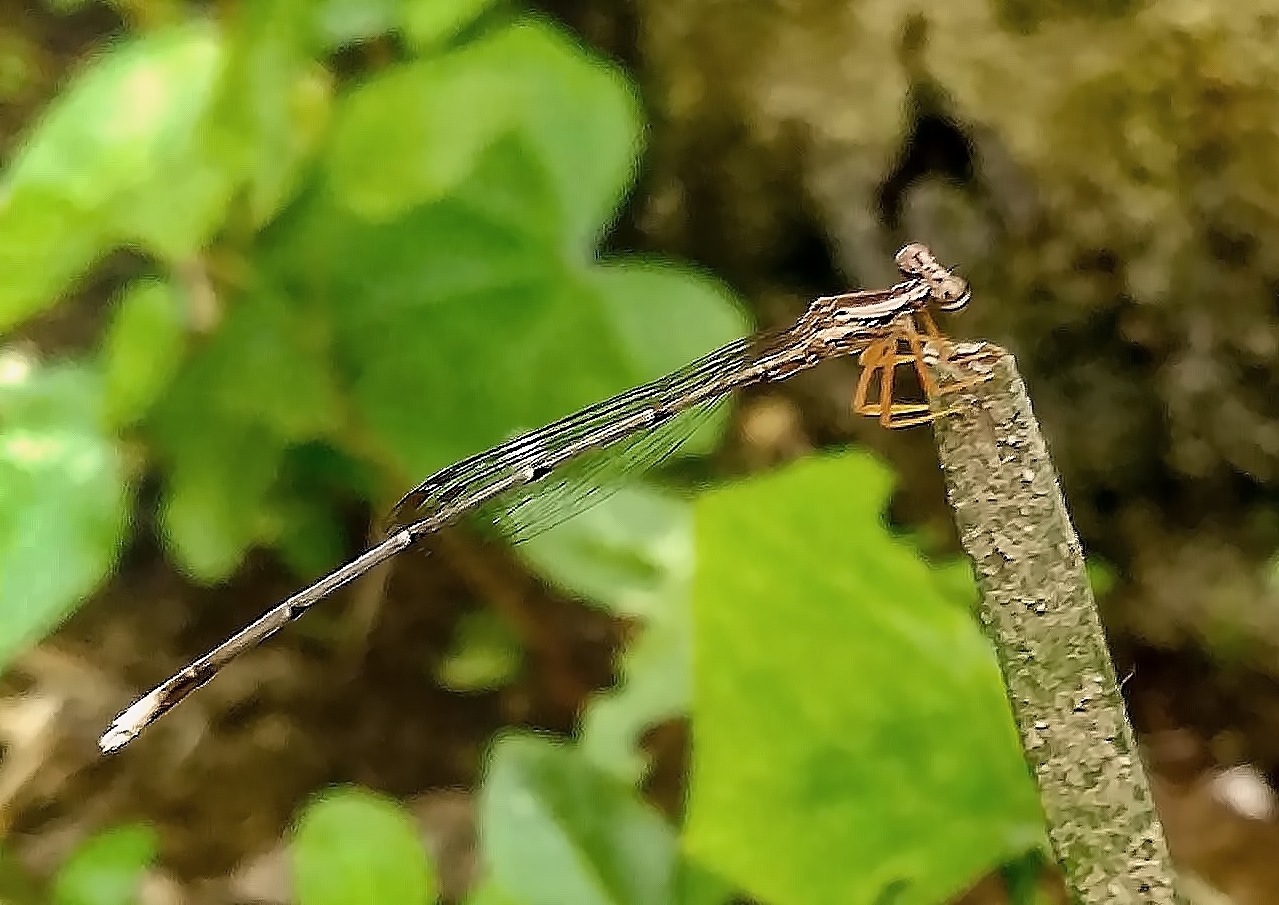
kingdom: Animalia
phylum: Arthropoda
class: Insecta
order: Odonata
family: Platycnemididae
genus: Copera
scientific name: Copera marginipes
